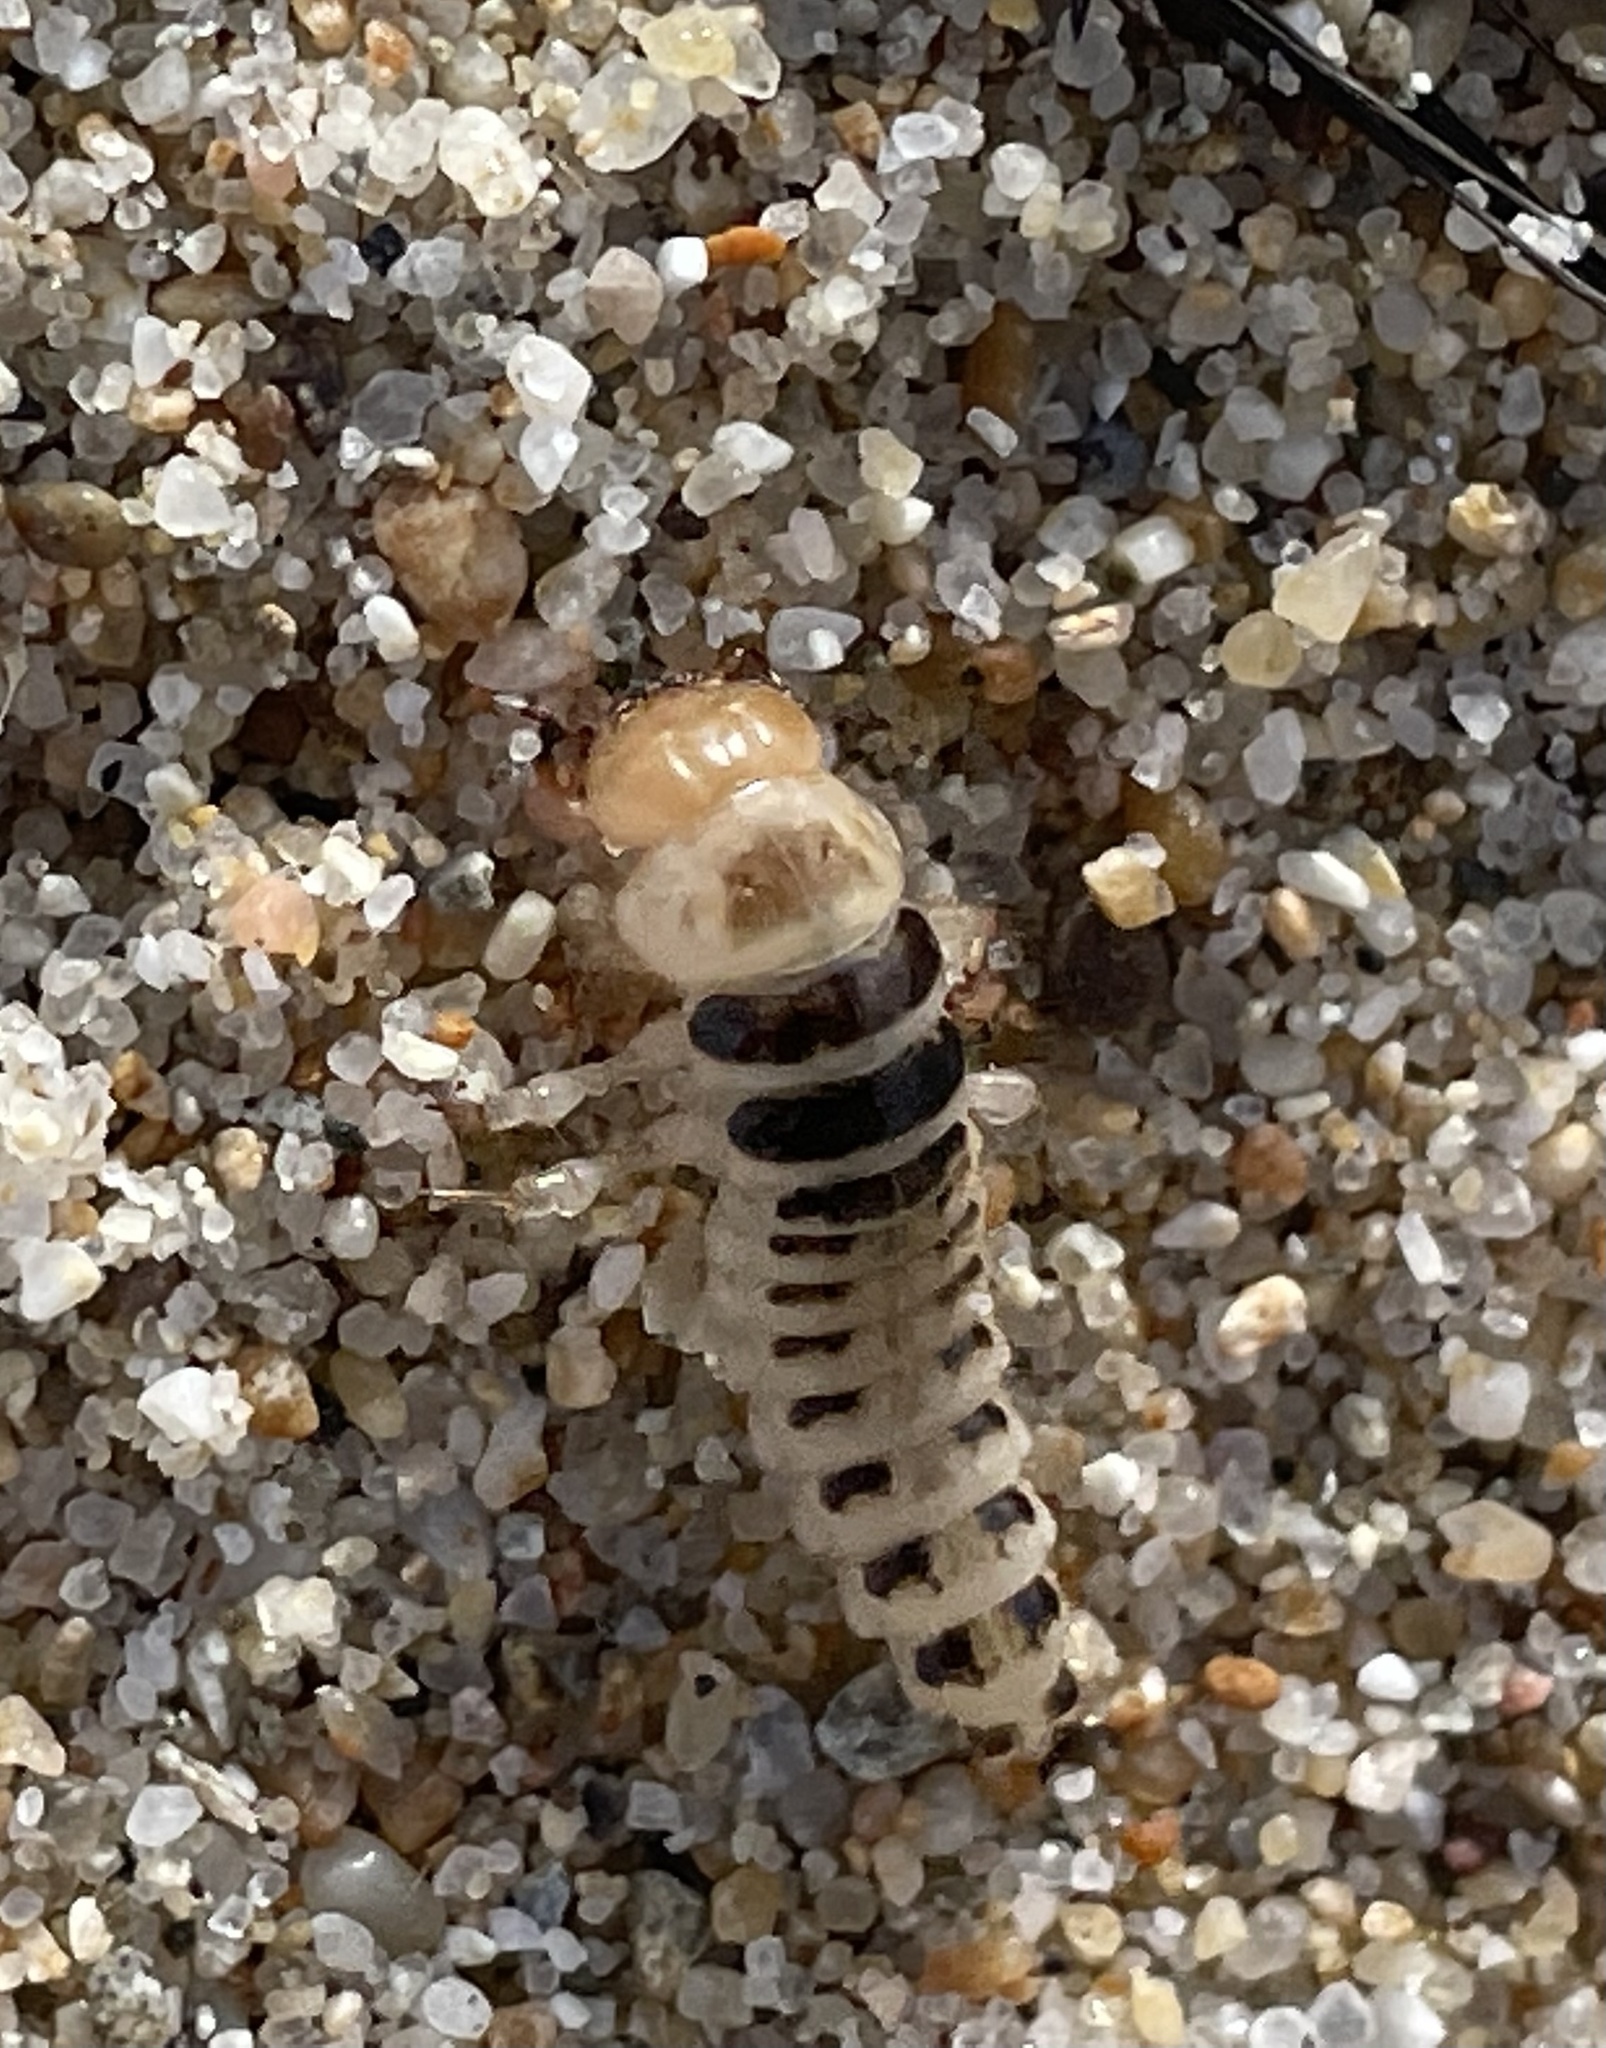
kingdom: Animalia
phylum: Arthropoda
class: Insecta
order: Coleoptera
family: Staphylinidae
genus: Thinopinus
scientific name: Thinopinus pictus
